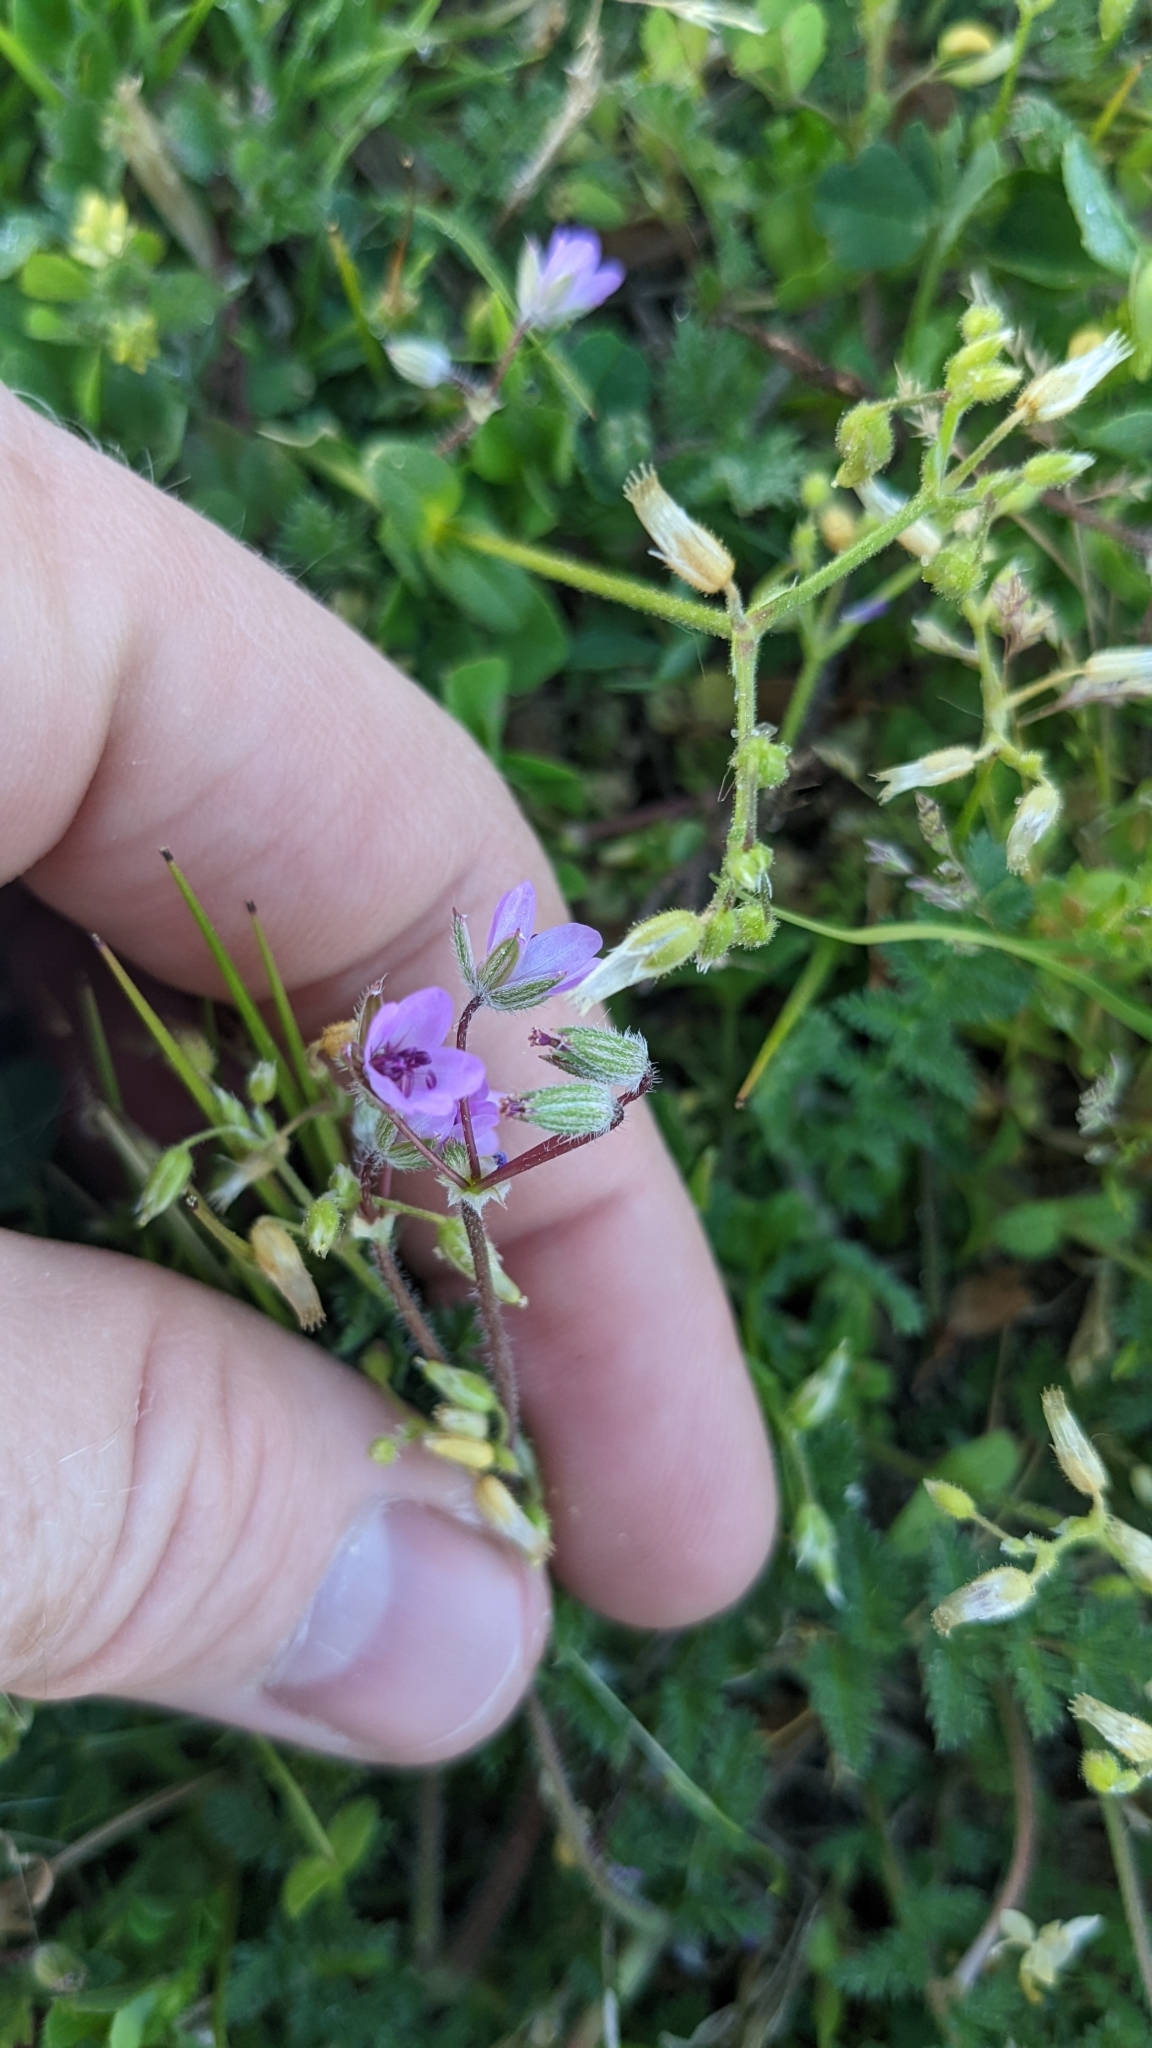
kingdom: Plantae
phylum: Tracheophyta
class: Magnoliopsida
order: Geraniales
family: Geraniaceae
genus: Erodium
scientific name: Erodium cicutarium
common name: Common stork's-bill
